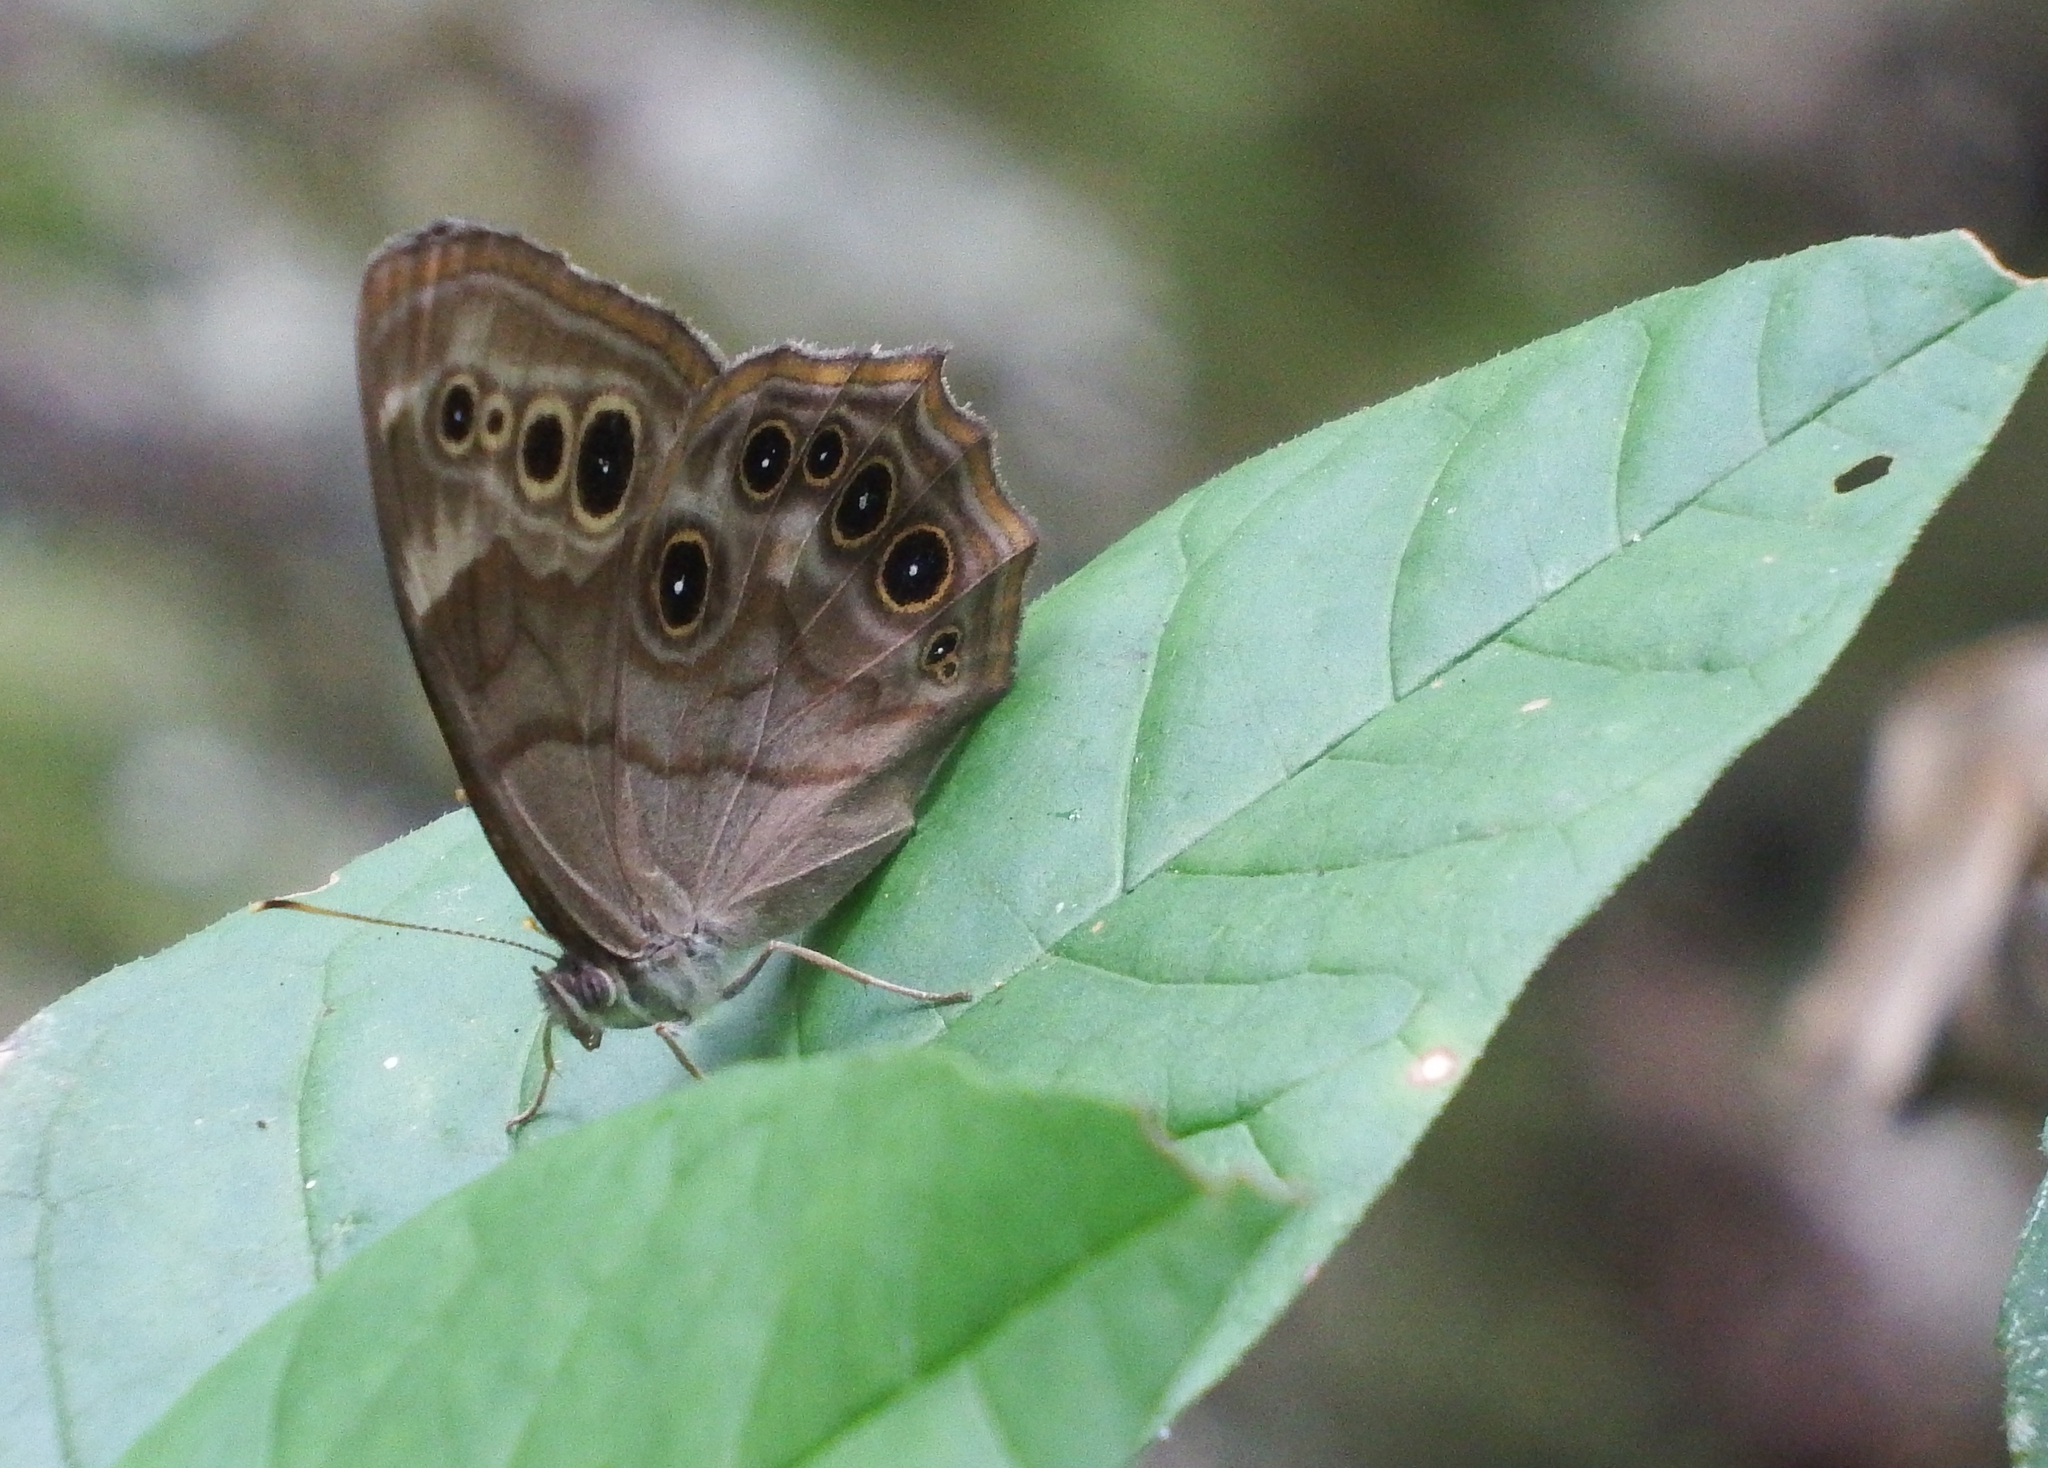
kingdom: Animalia
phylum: Arthropoda
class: Insecta
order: Lepidoptera
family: Nymphalidae
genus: Lethe
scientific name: Lethe anthedon
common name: Northern pearly-eye
